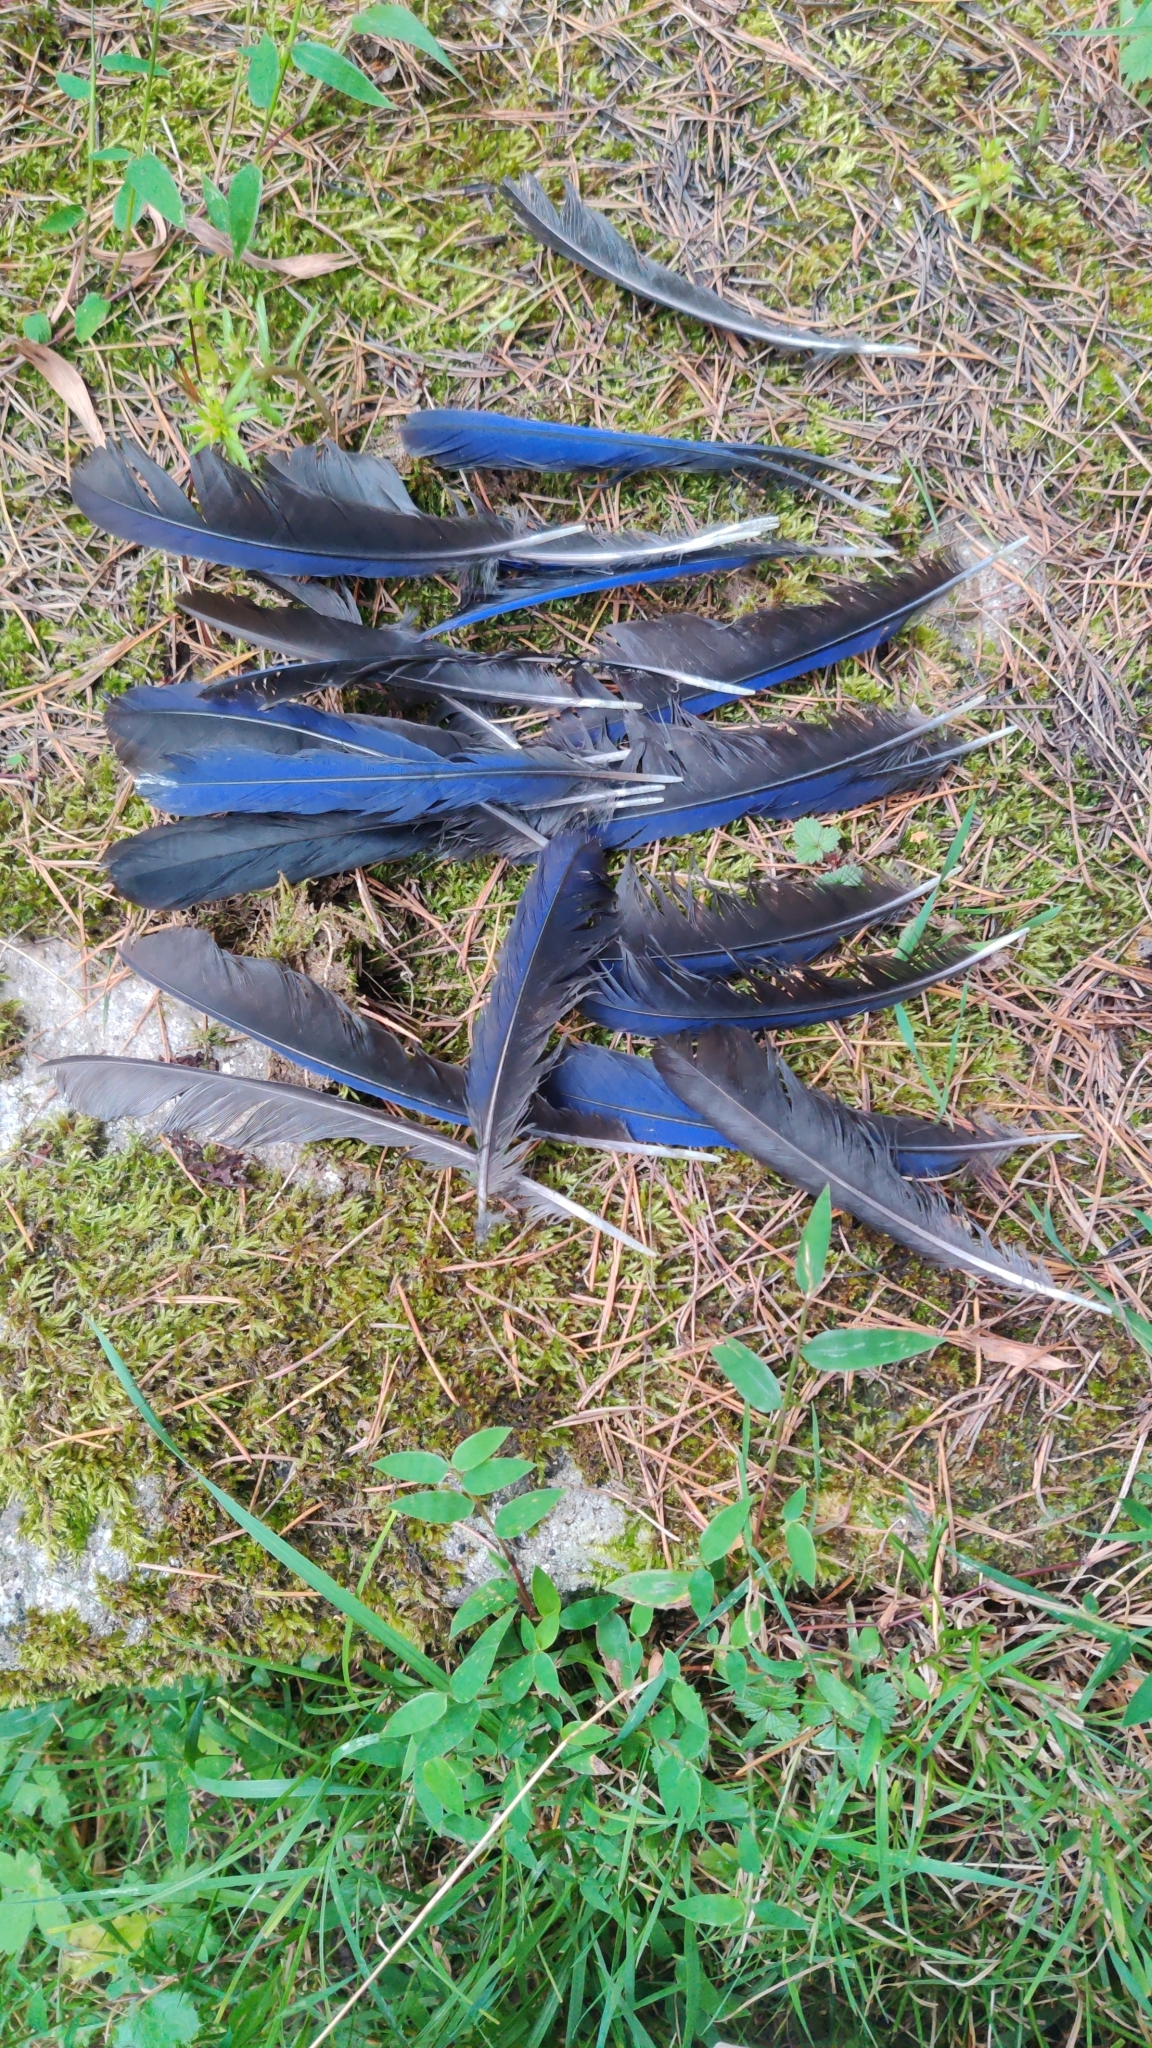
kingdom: Animalia
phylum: Chordata
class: Aves
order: Passeriformes
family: Muscicapidae
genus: Myophonus
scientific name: Myophonus caeruleus
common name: Blue whistling-thrush
